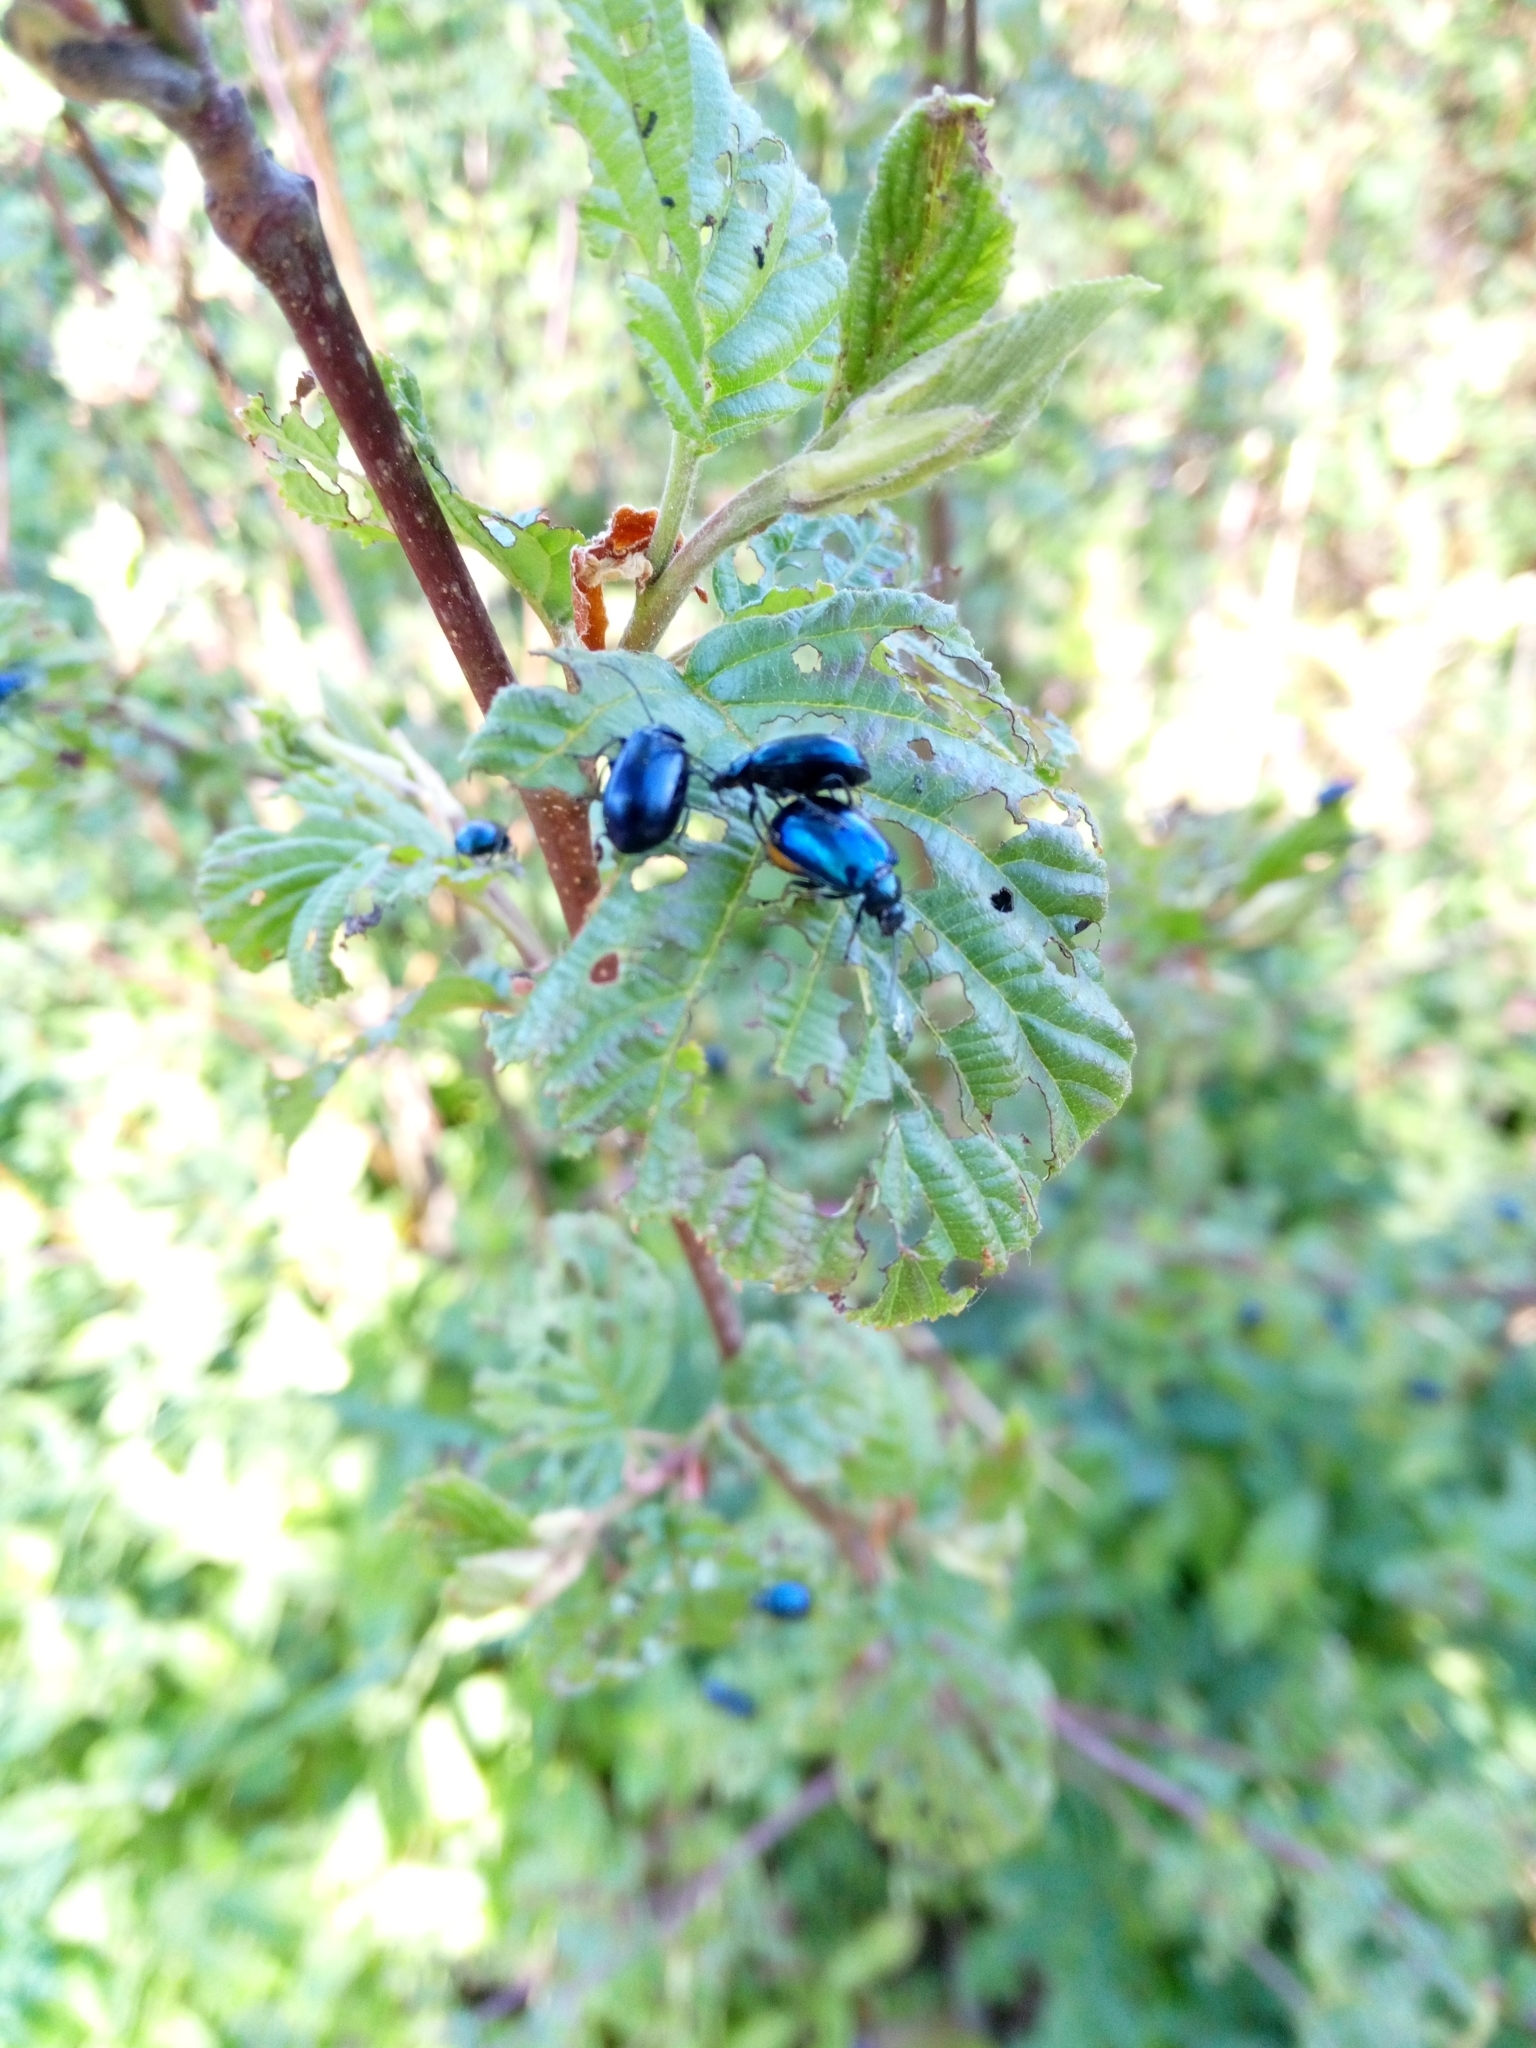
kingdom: Animalia
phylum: Arthropoda
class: Insecta
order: Coleoptera
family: Chrysomelidae
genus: Agelastica
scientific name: Agelastica alni
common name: Alder leaf beetle
